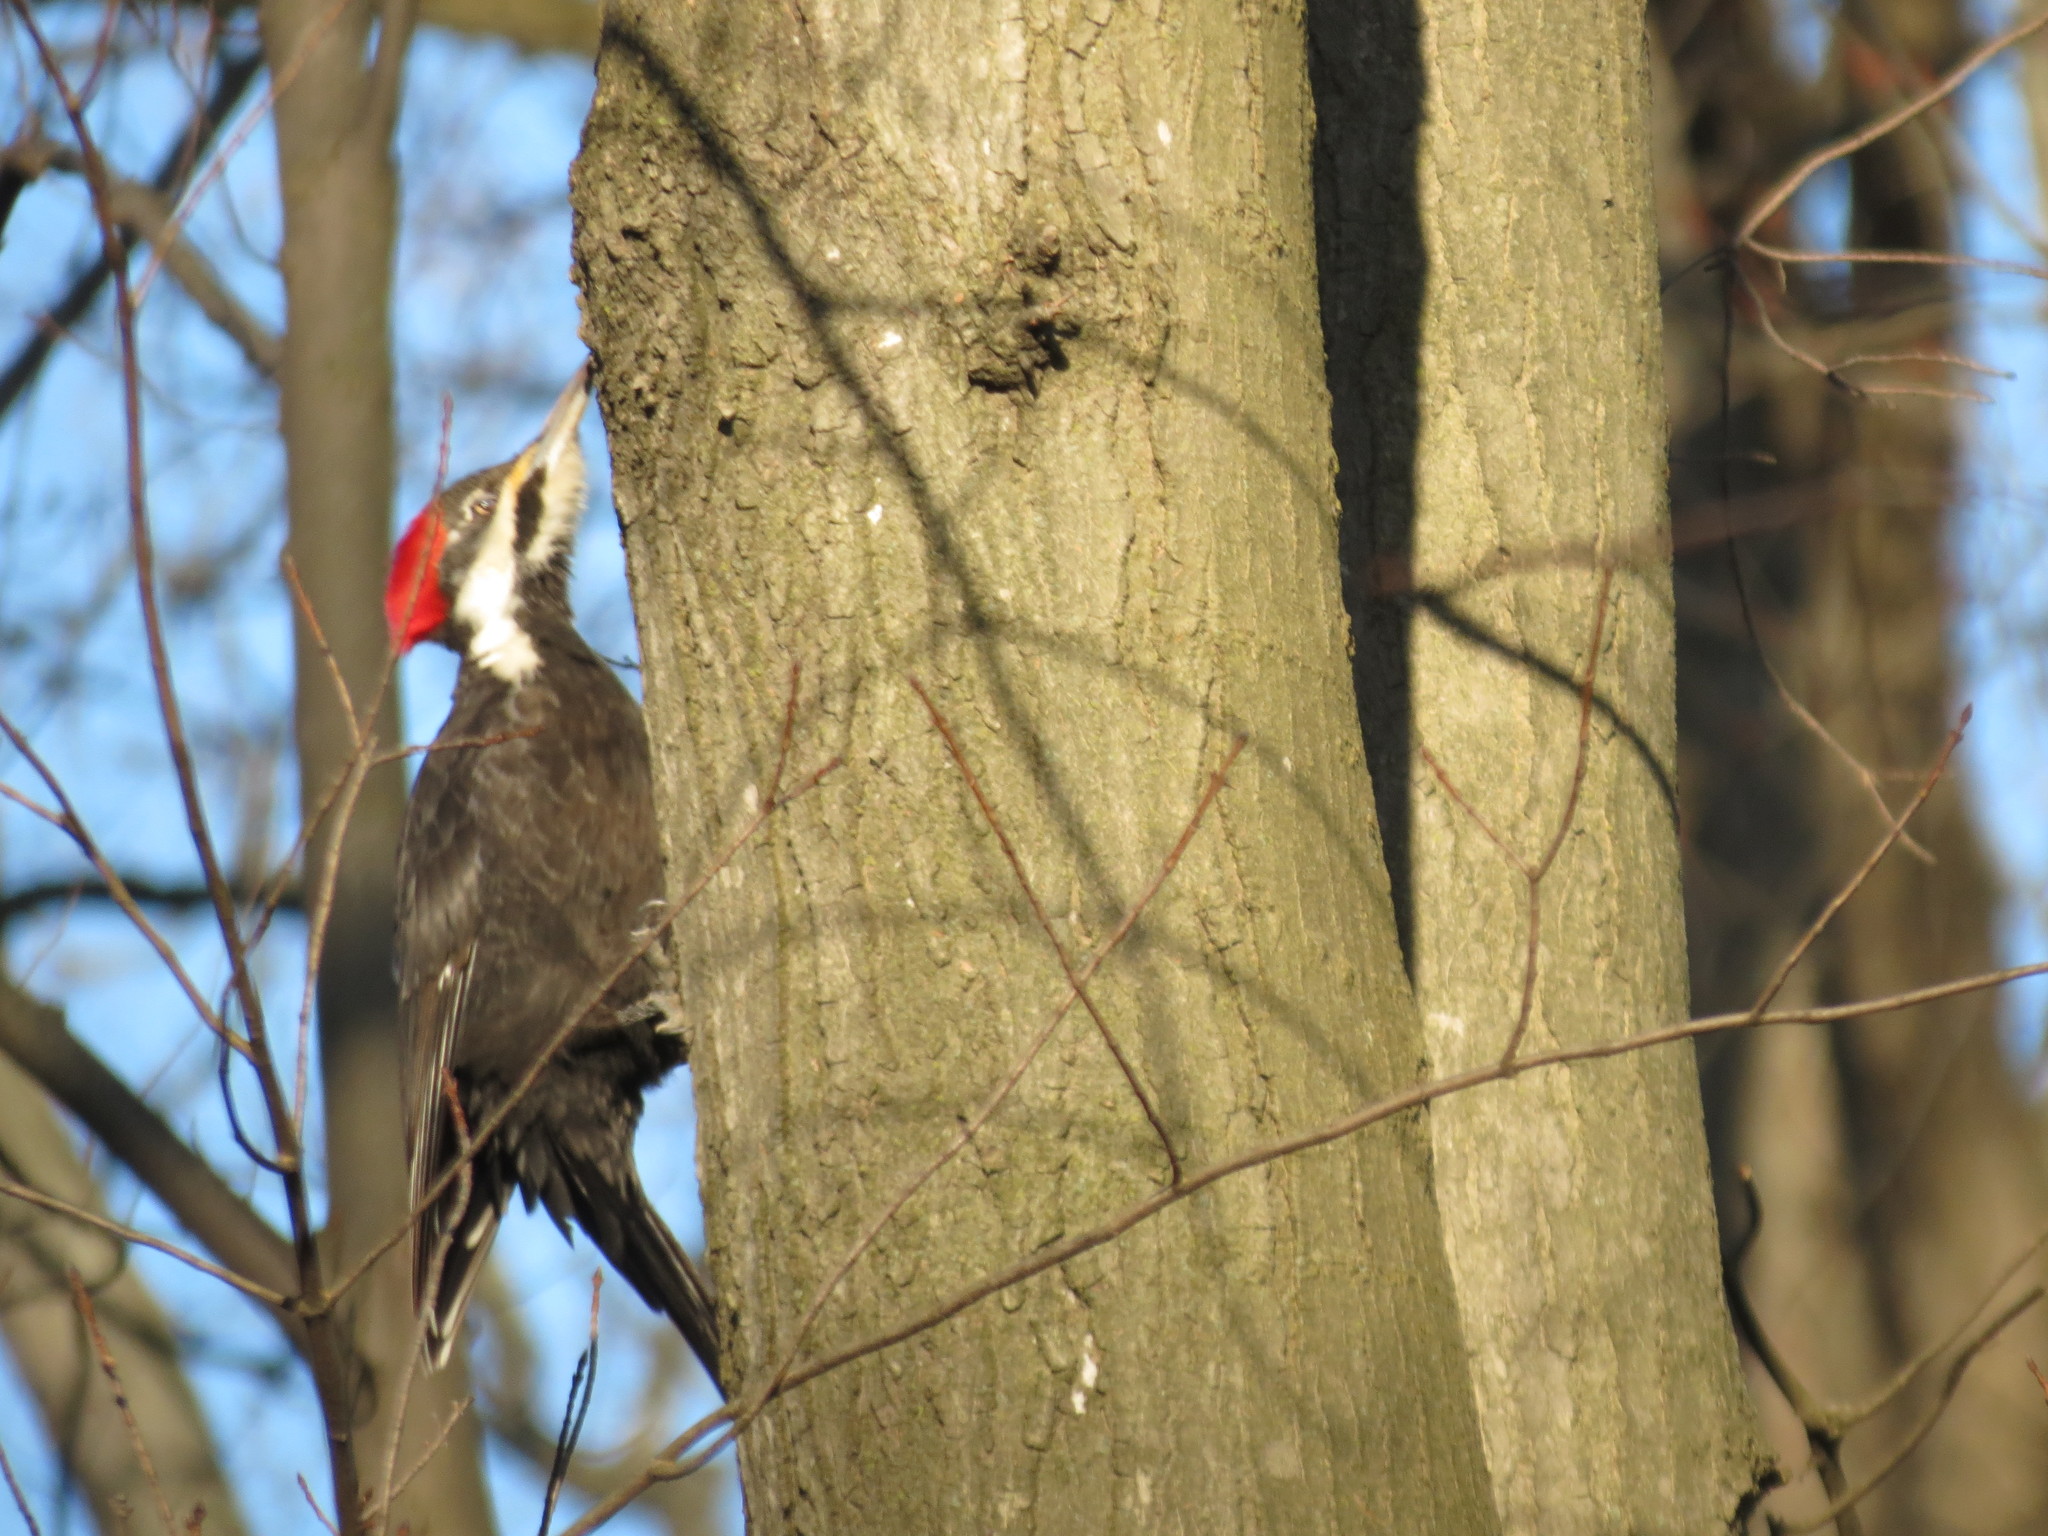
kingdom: Animalia
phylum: Chordata
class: Aves
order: Piciformes
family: Picidae
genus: Dryocopus
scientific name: Dryocopus pileatus
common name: Pileated woodpecker
